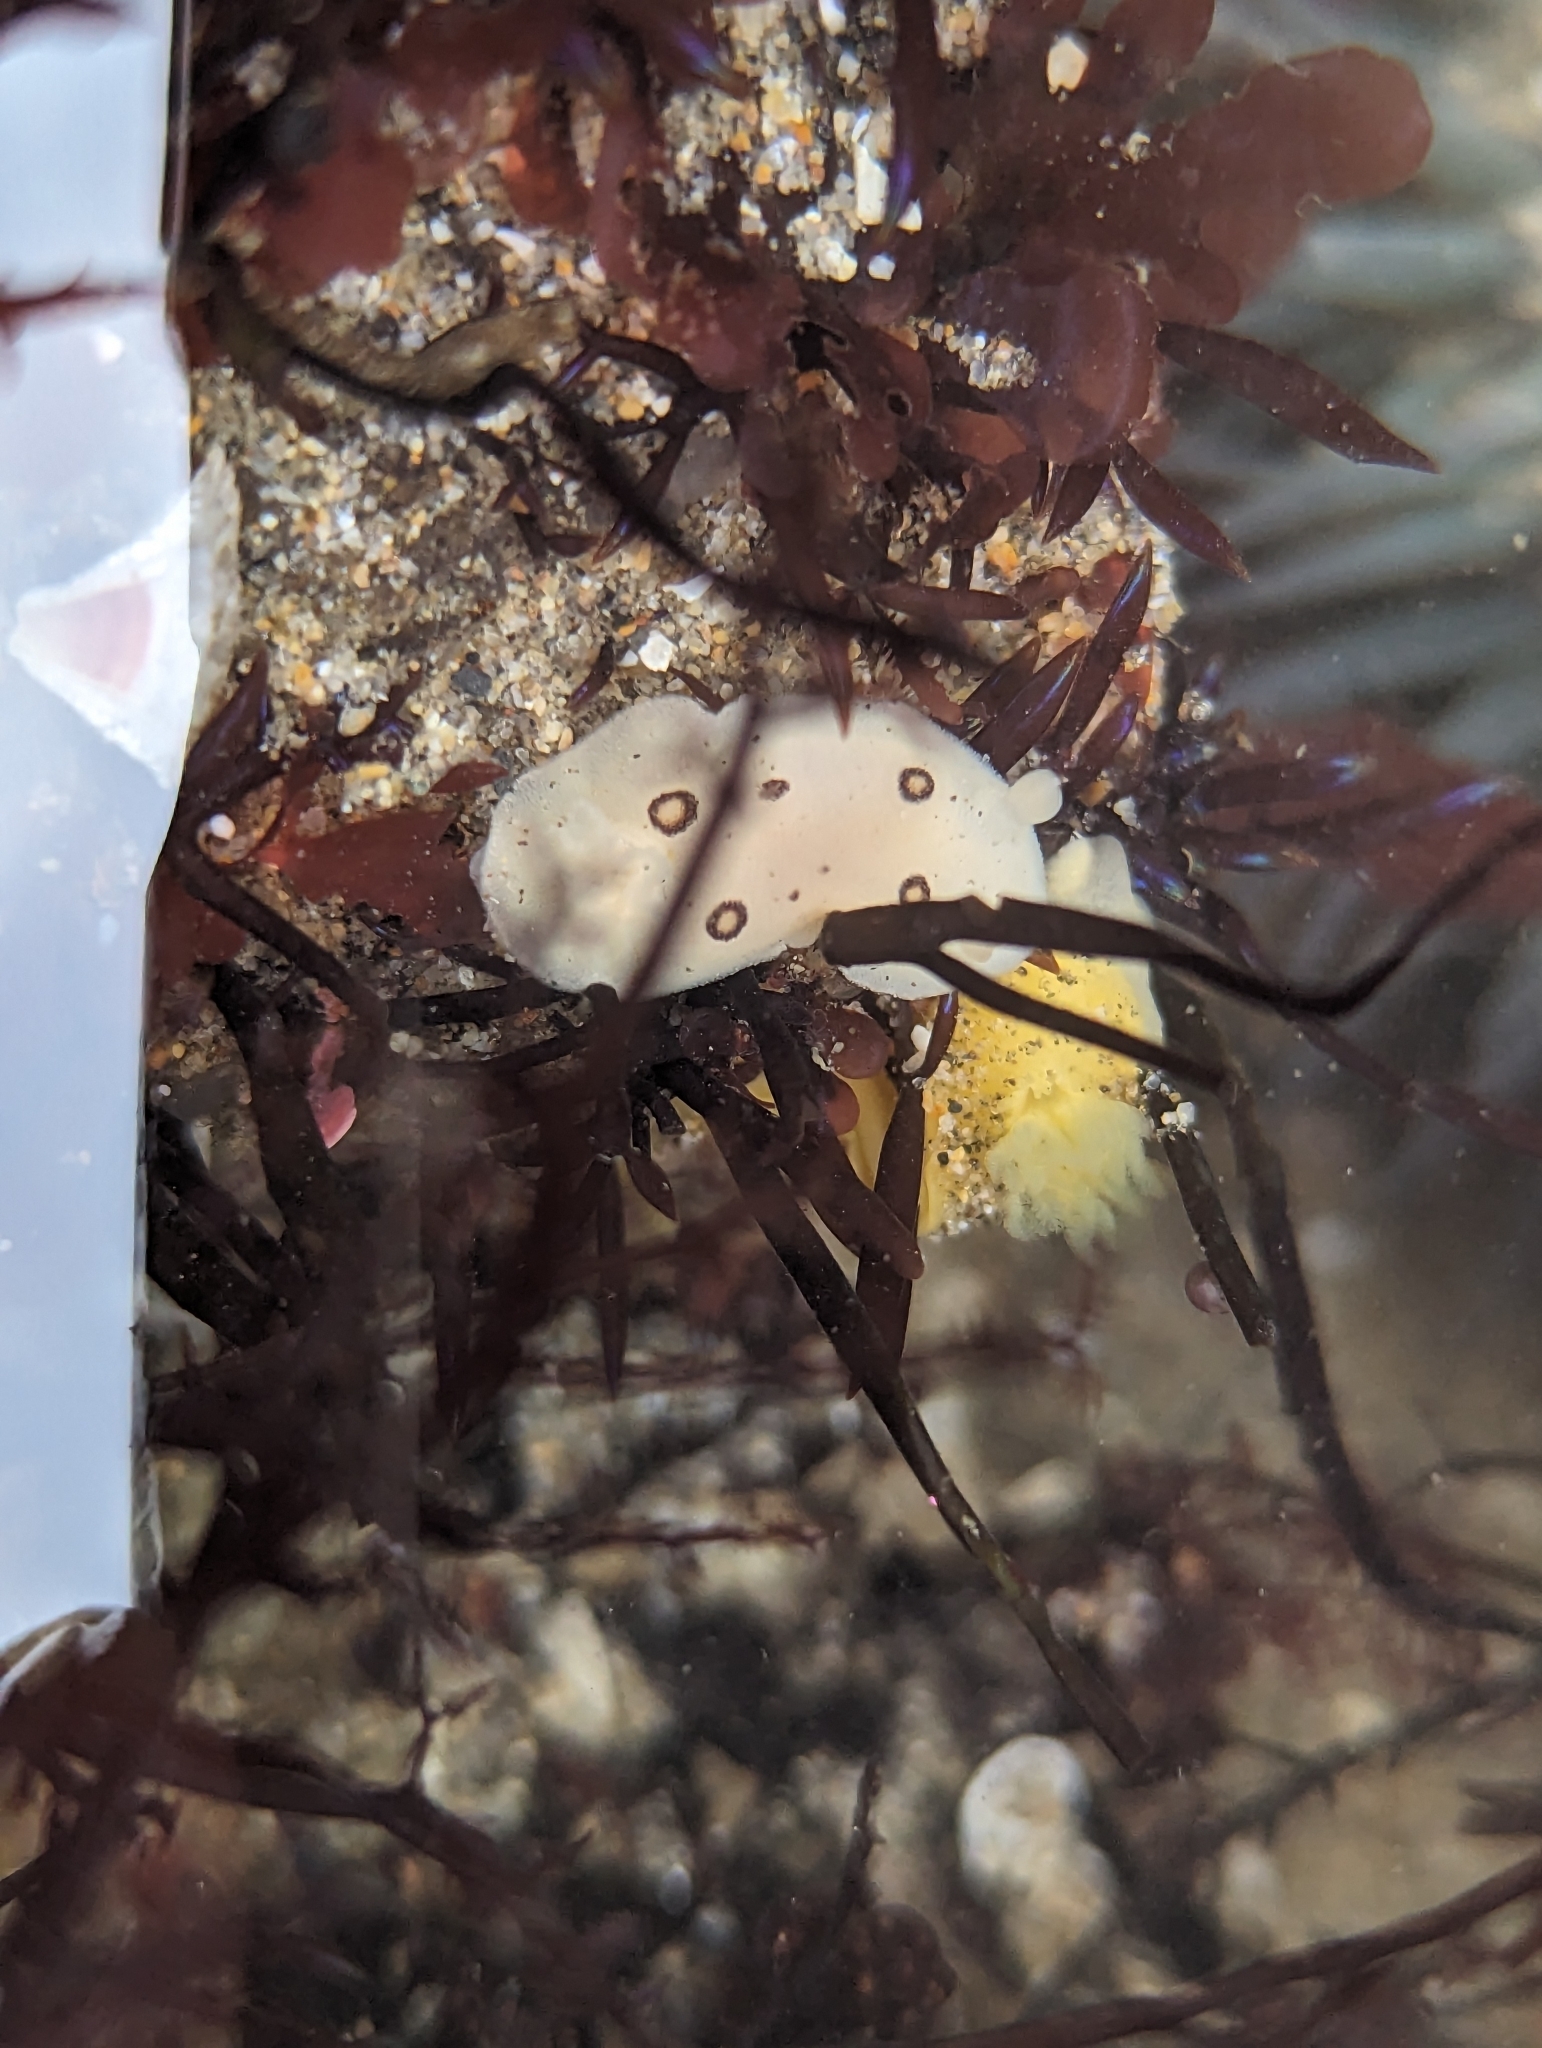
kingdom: Animalia
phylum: Mollusca
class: Gastropoda
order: Nudibranchia
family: Discodorididae
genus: Diaulula
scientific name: Diaulula sandiegensis
